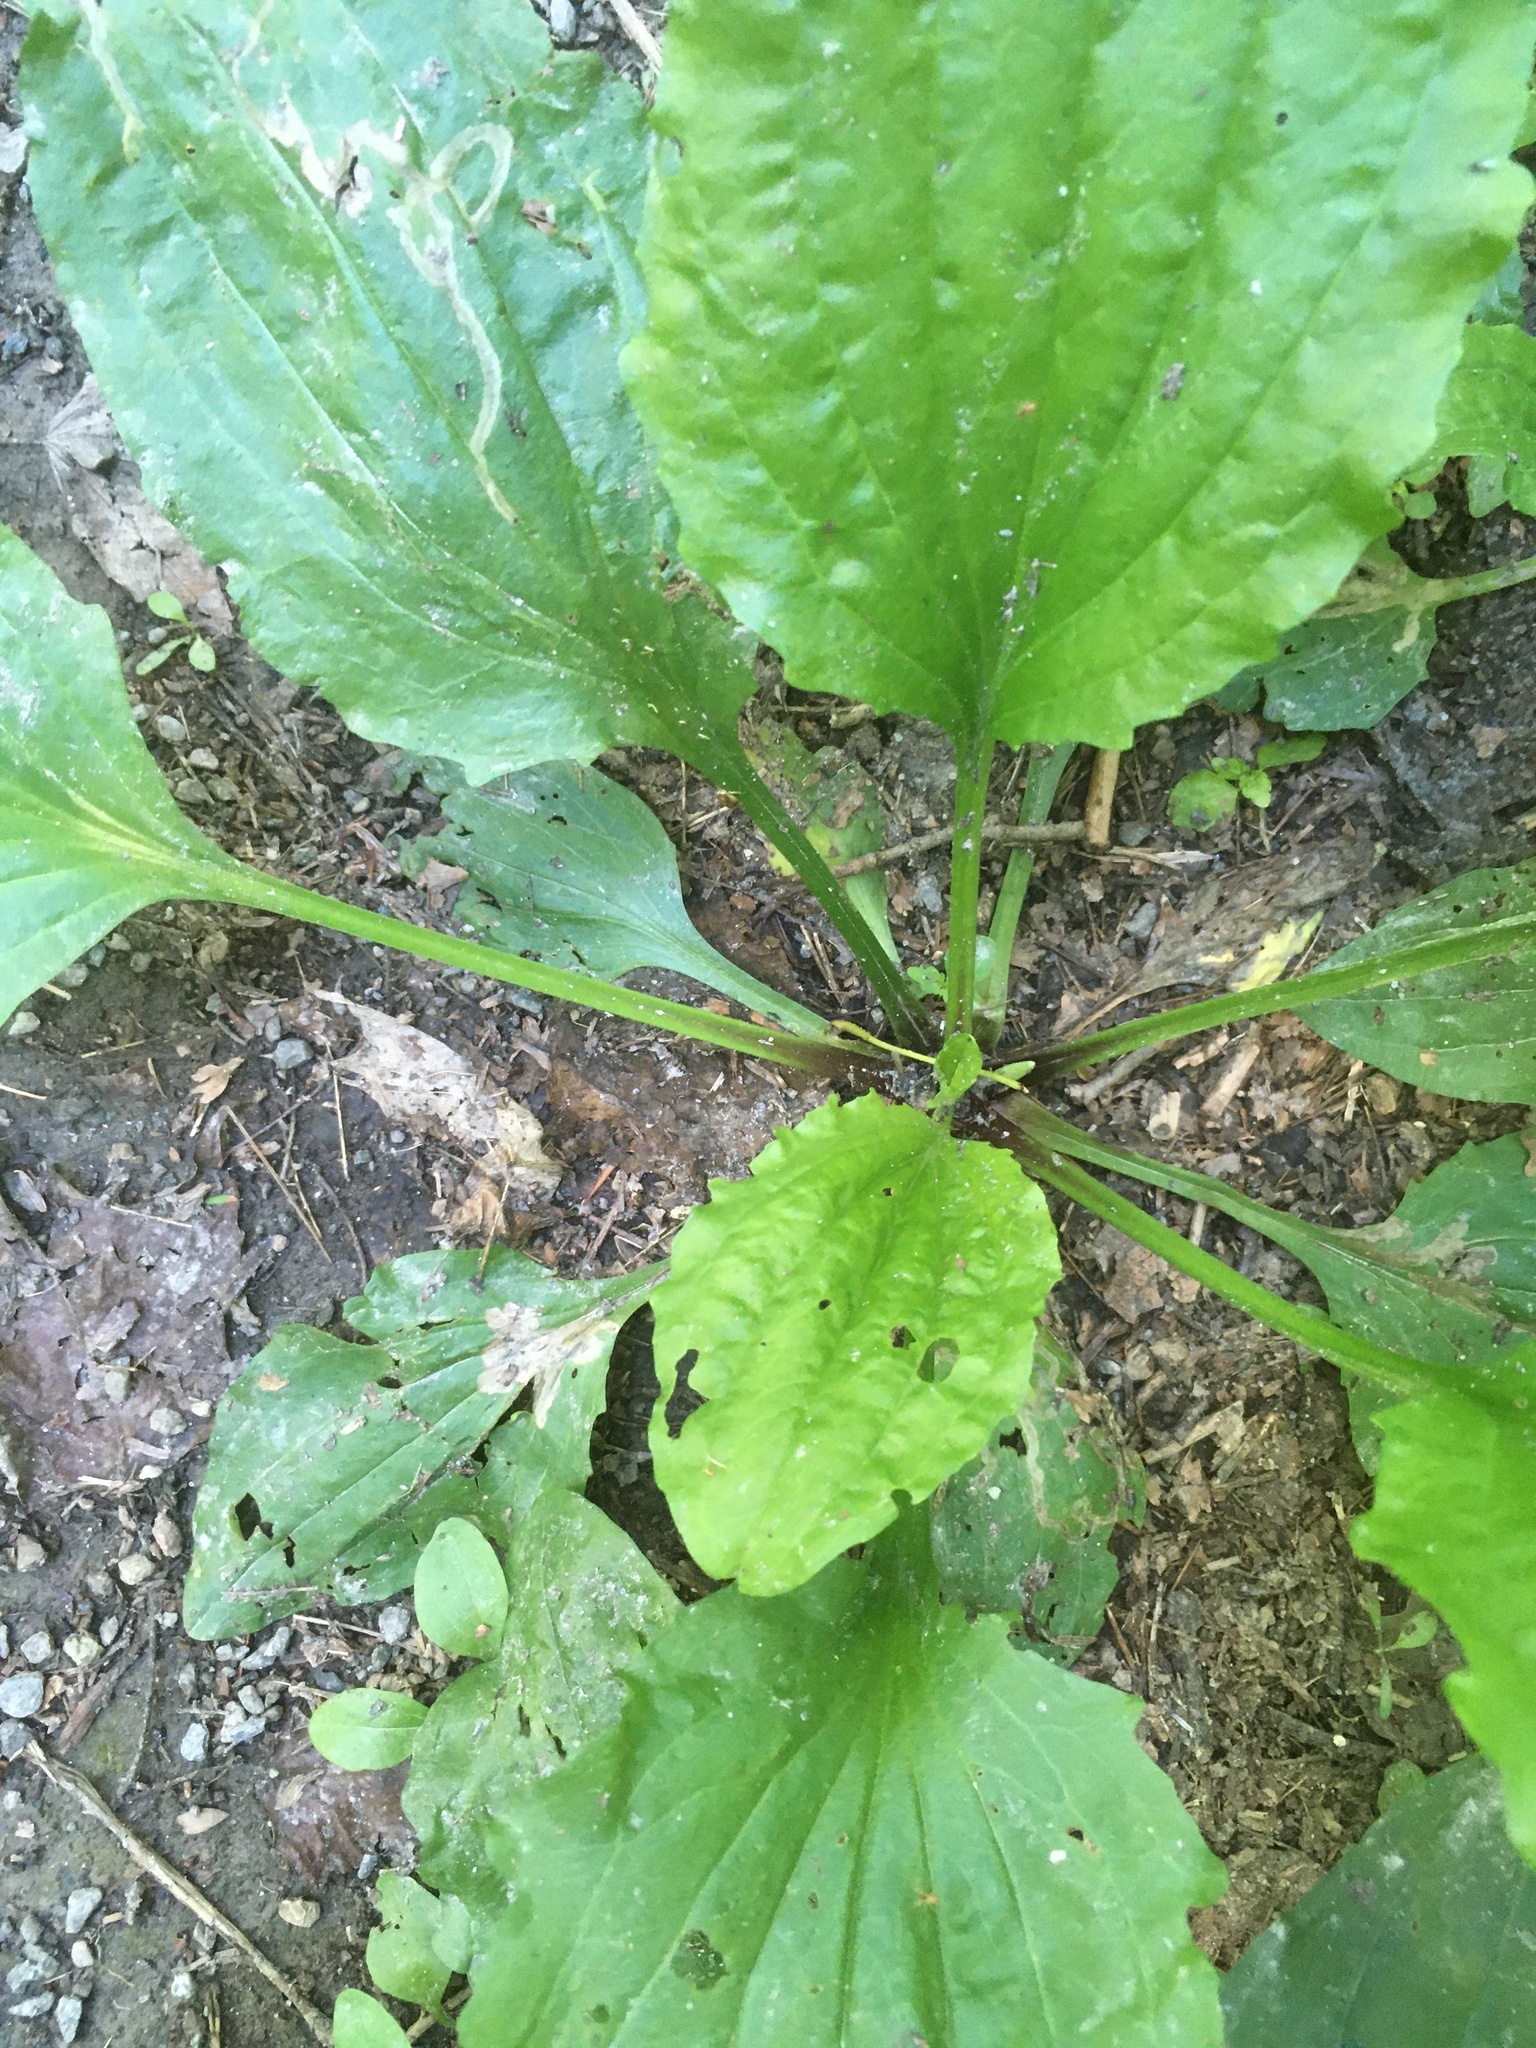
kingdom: Plantae
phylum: Tracheophyta
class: Magnoliopsida
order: Lamiales
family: Plantaginaceae
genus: Plantago
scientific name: Plantago rugelii
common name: American plantain
